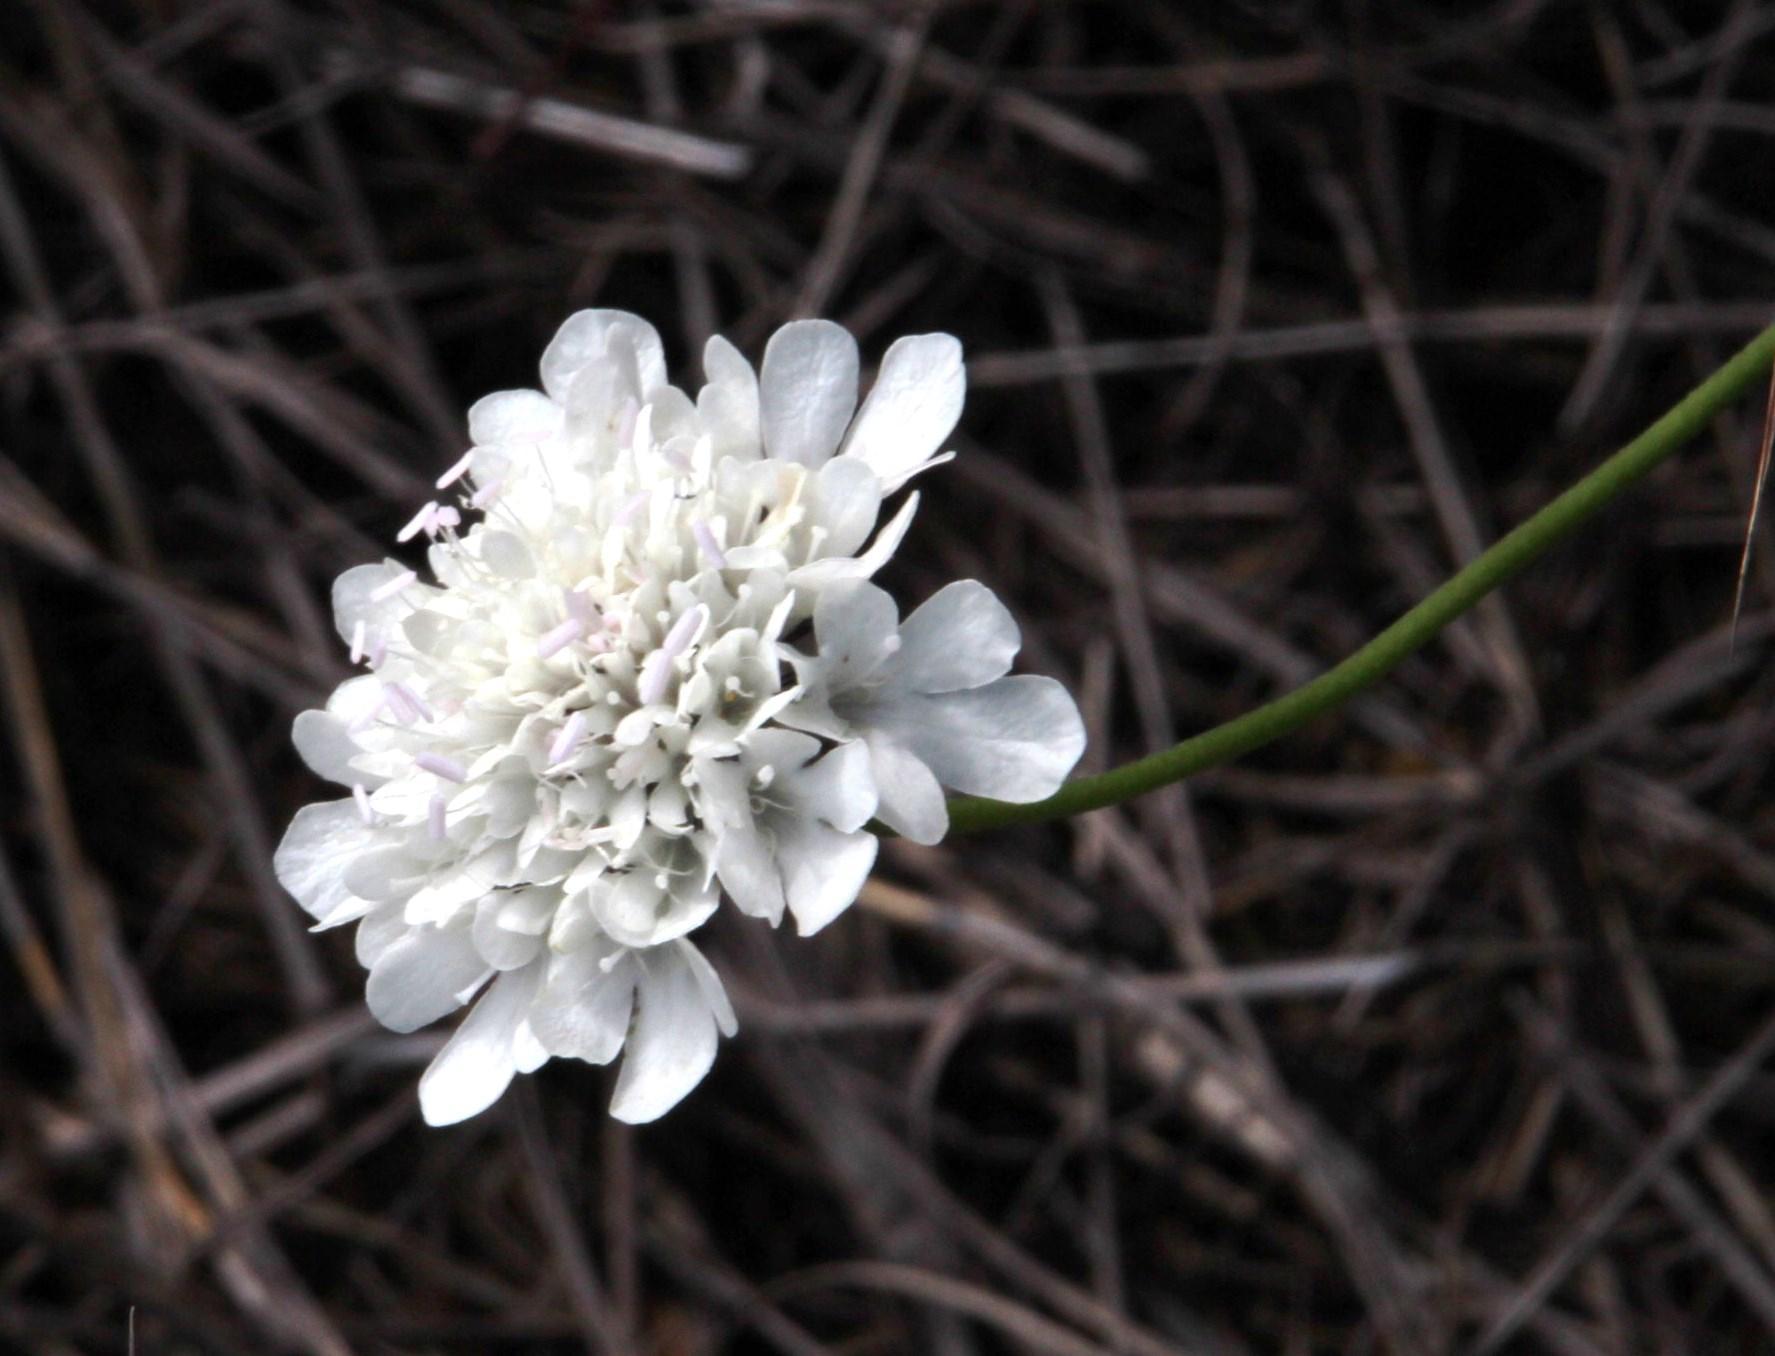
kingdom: Plantae
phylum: Tracheophyta
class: Magnoliopsida
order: Dipsacales
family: Caprifoliaceae
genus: Scabiosa
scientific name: Scabiosa africana
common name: Cape scabious
